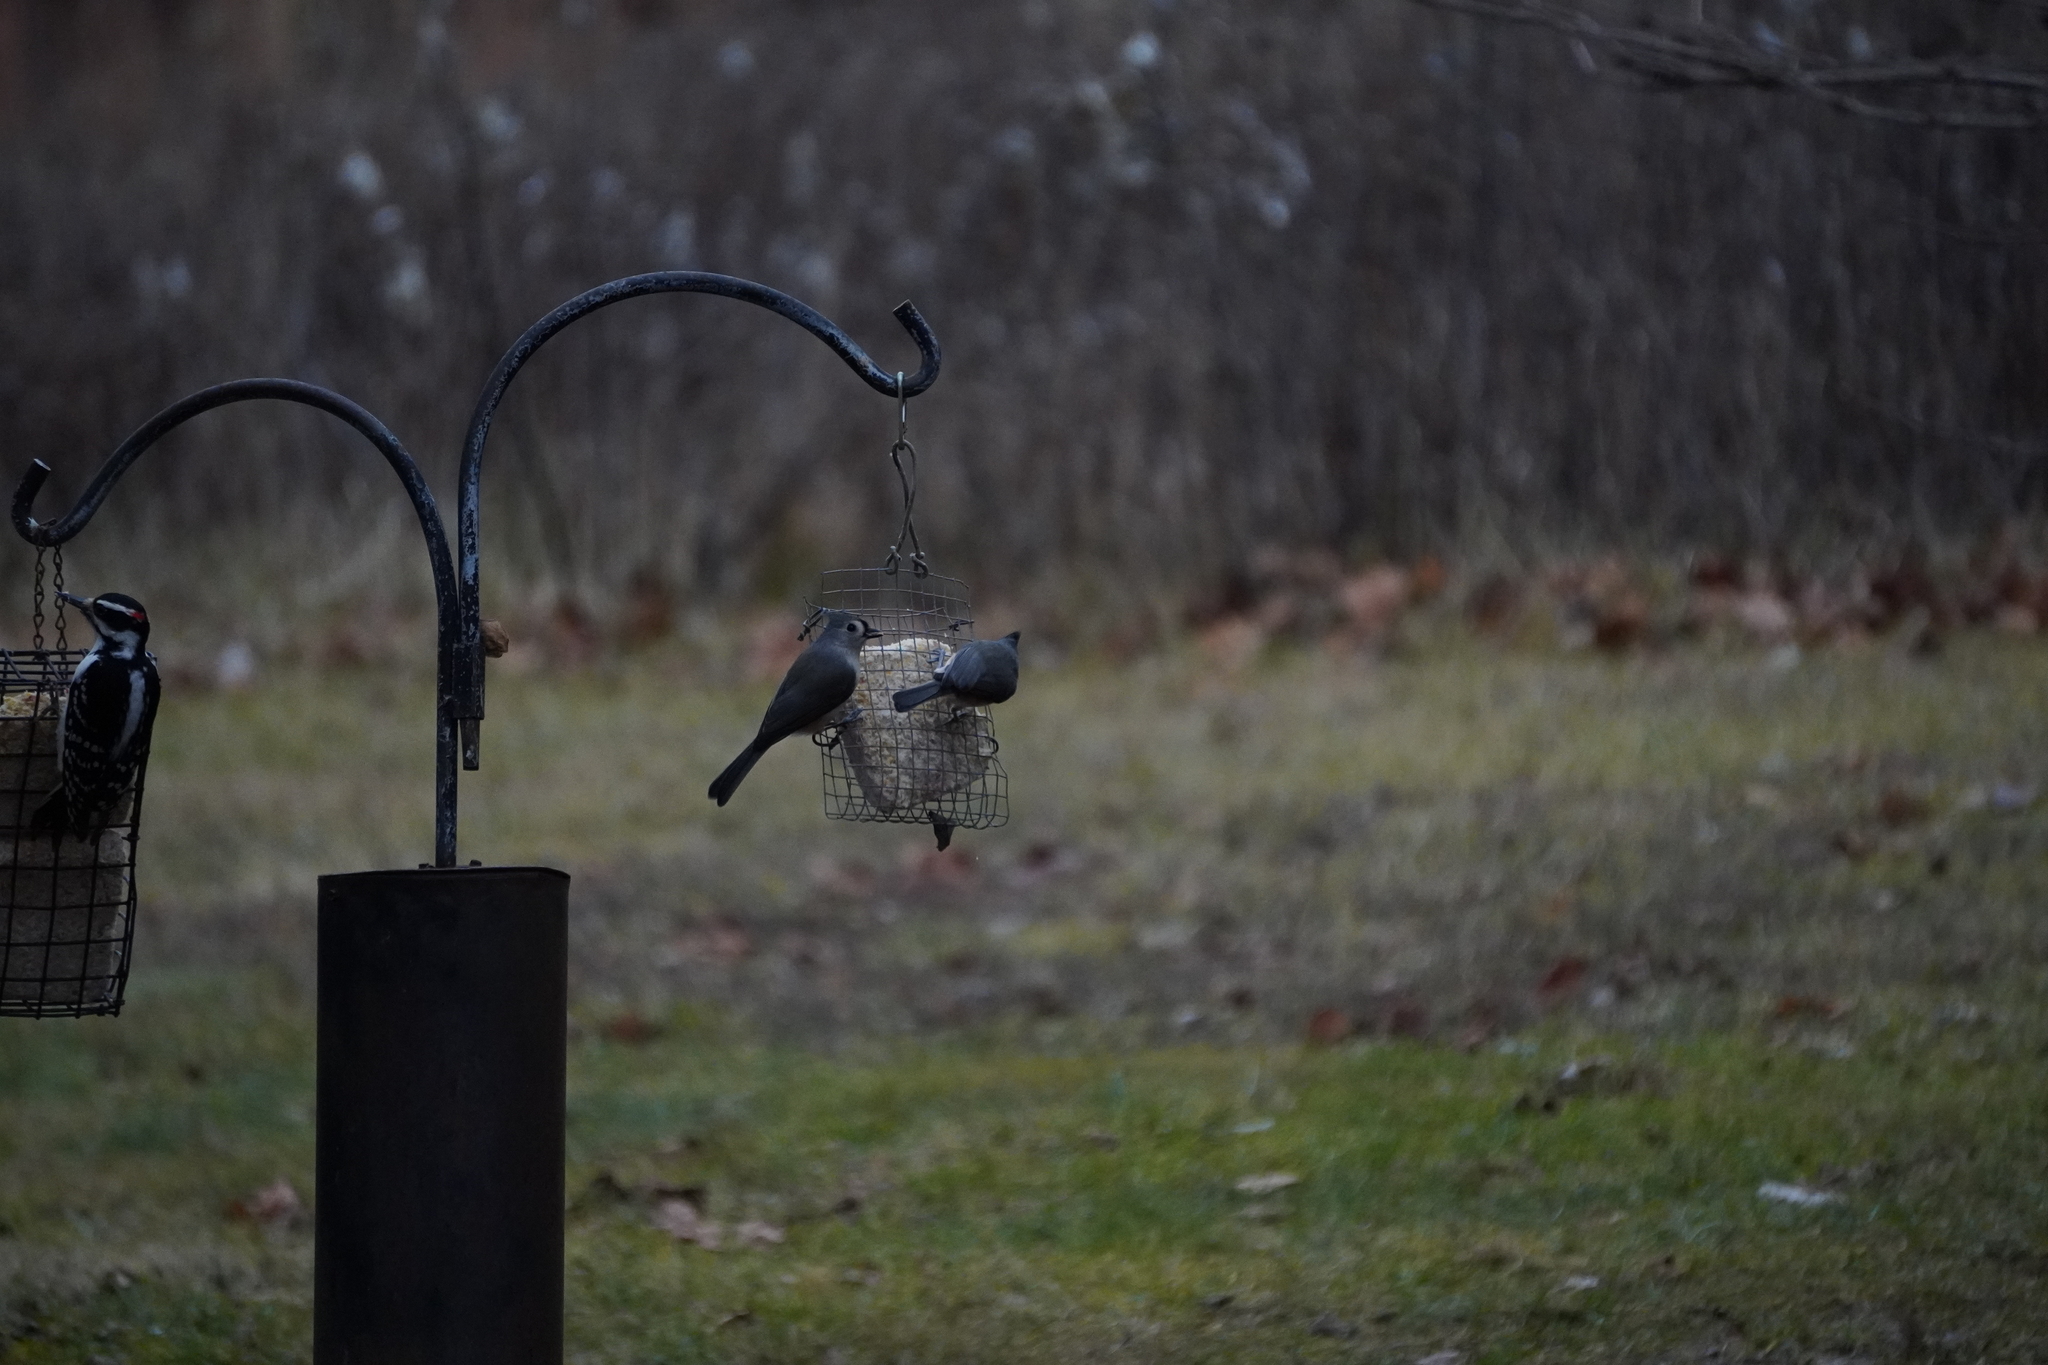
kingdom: Animalia
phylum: Chordata
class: Aves
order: Passeriformes
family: Paridae
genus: Baeolophus
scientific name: Baeolophus bicolor
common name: Tufted titmouse
